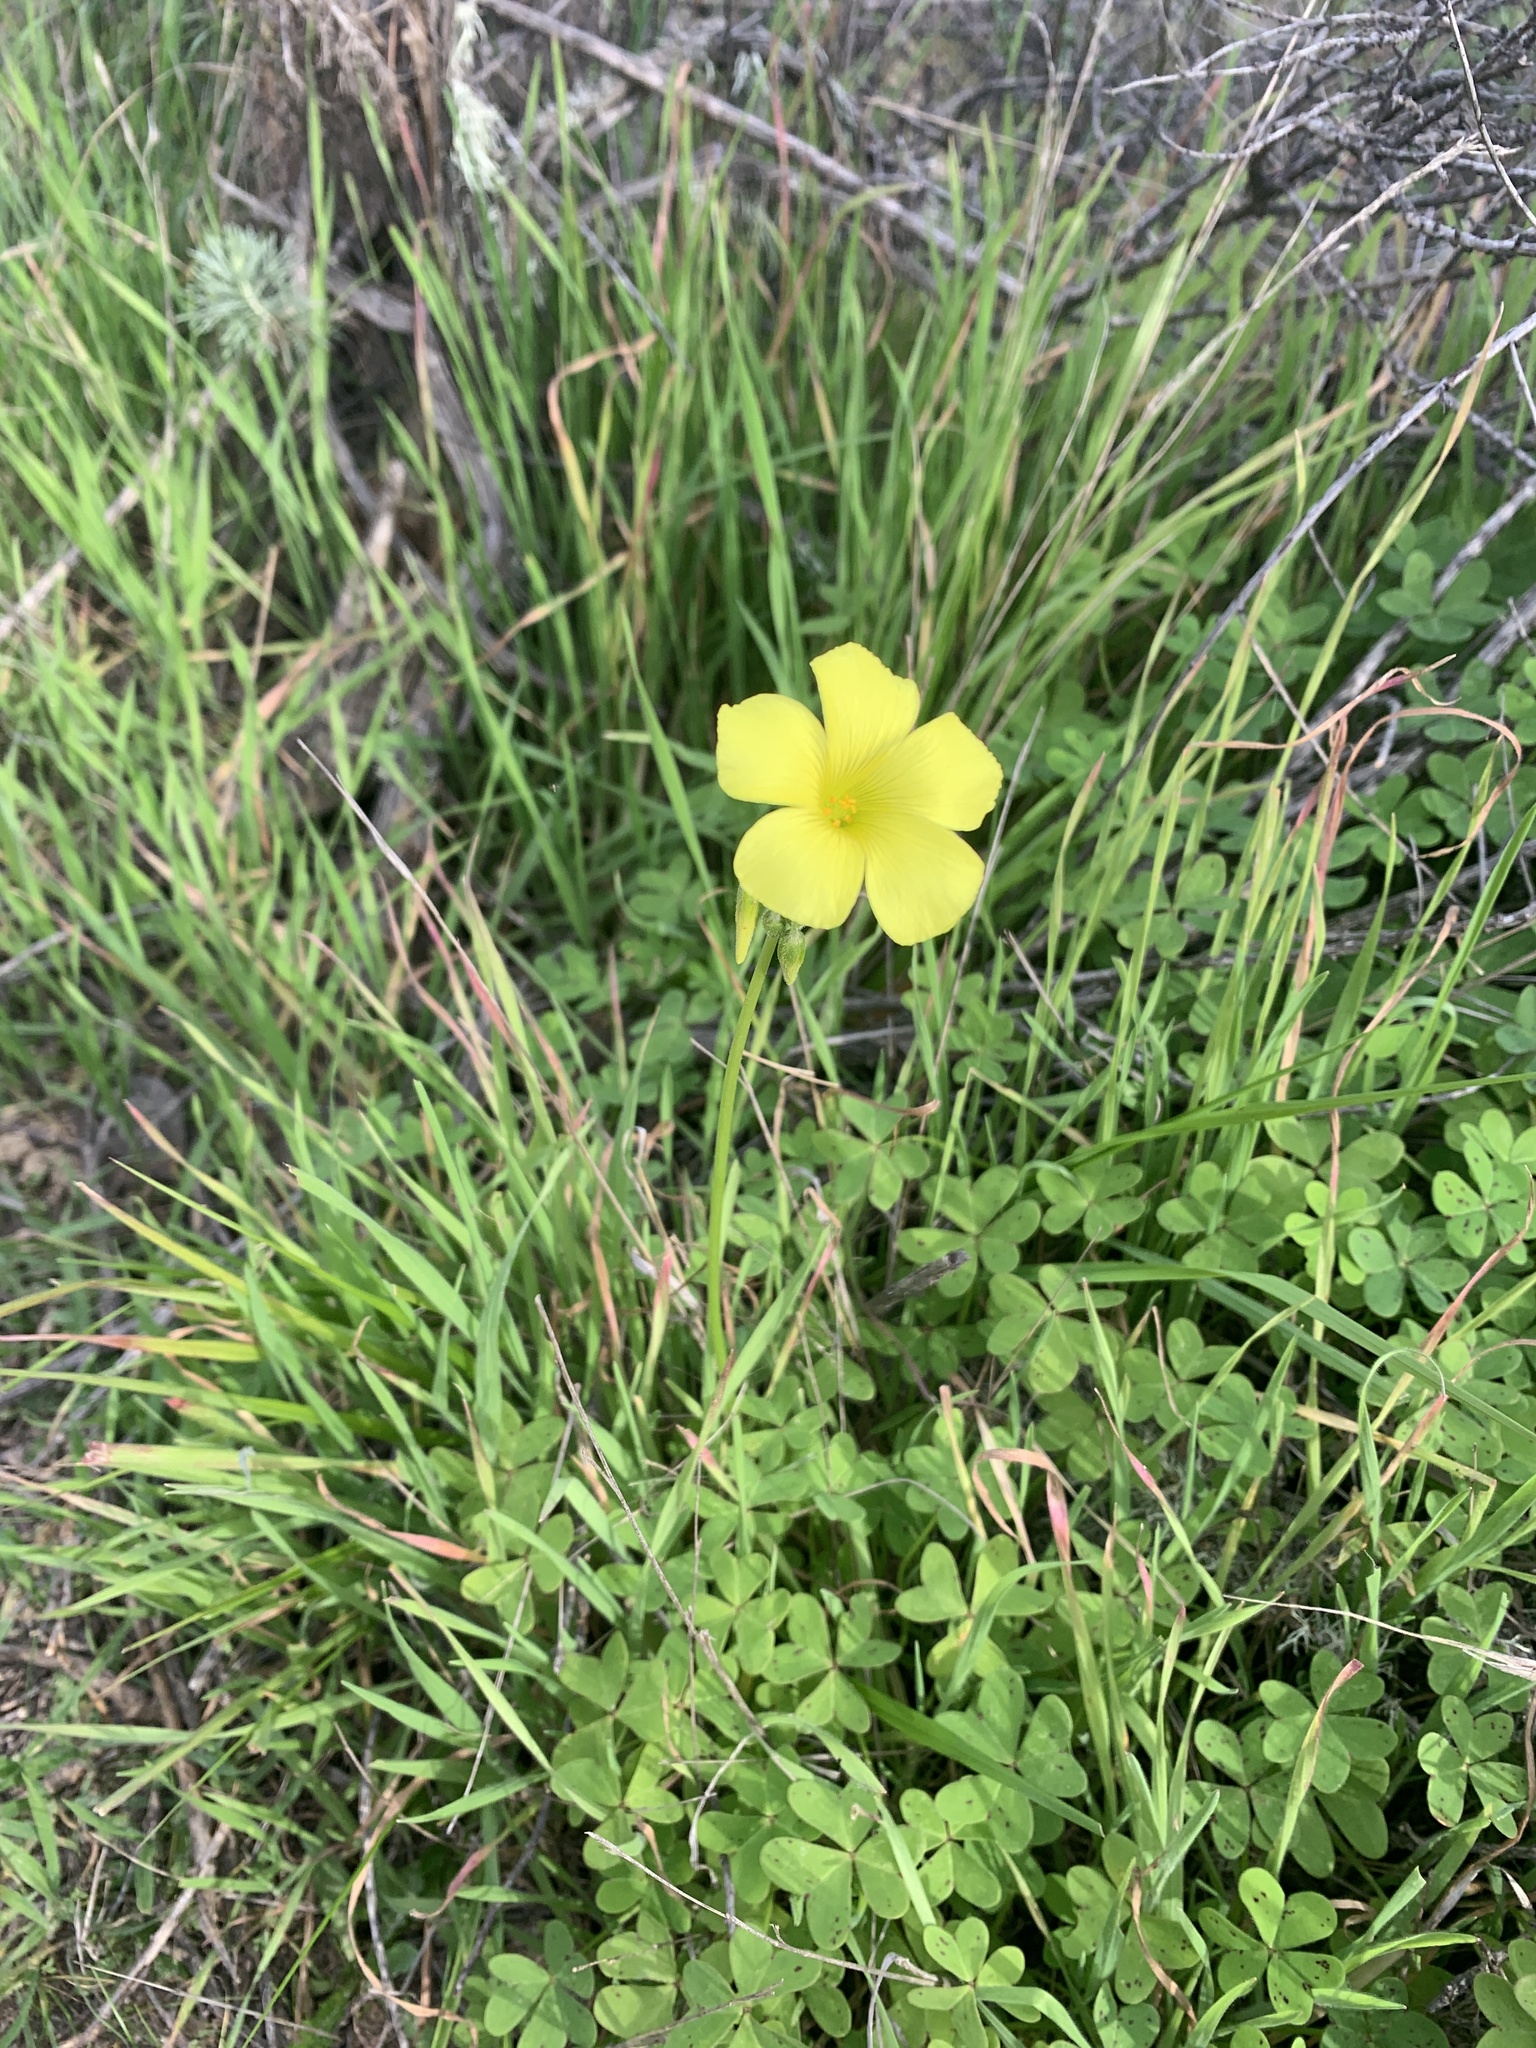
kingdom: Plantae
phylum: Tracheophyta
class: Magnoliopsida
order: Oxalidales
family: Oxalidaceae
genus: Oxalis
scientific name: Oxalis pes-caprae
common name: Bermuda-buttercup
